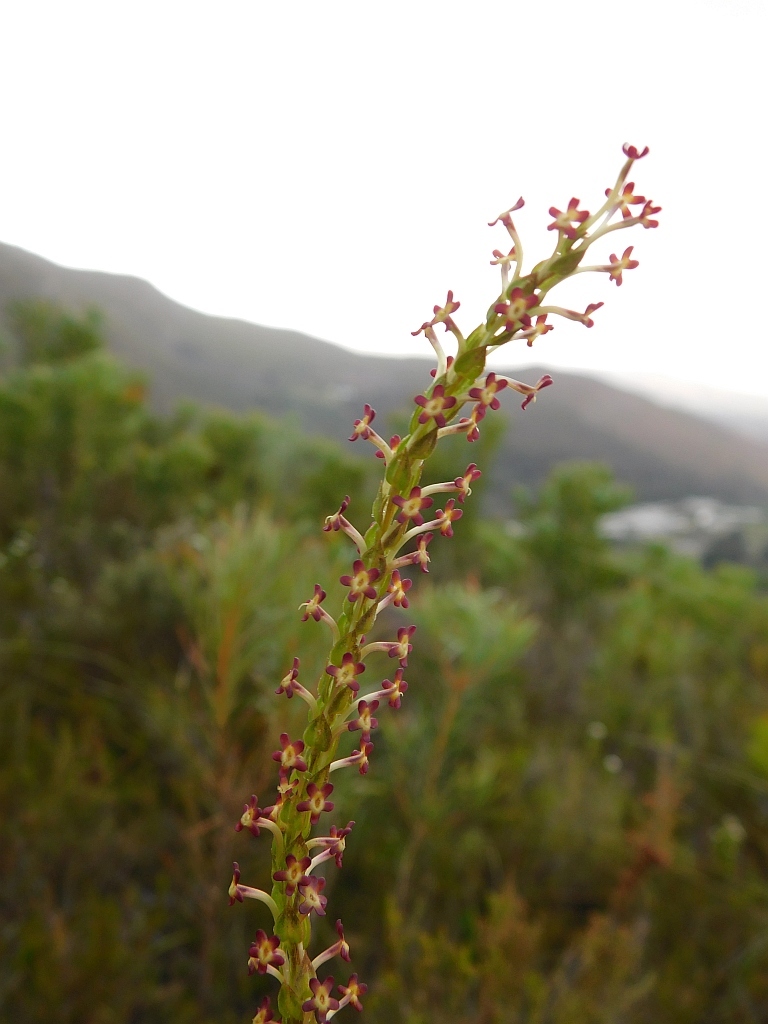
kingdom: Plantae
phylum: Tracheophyta
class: Magnoliopsida
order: Lamiales
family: Scrophulariaceae
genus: Microdon
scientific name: Microdon dubius
